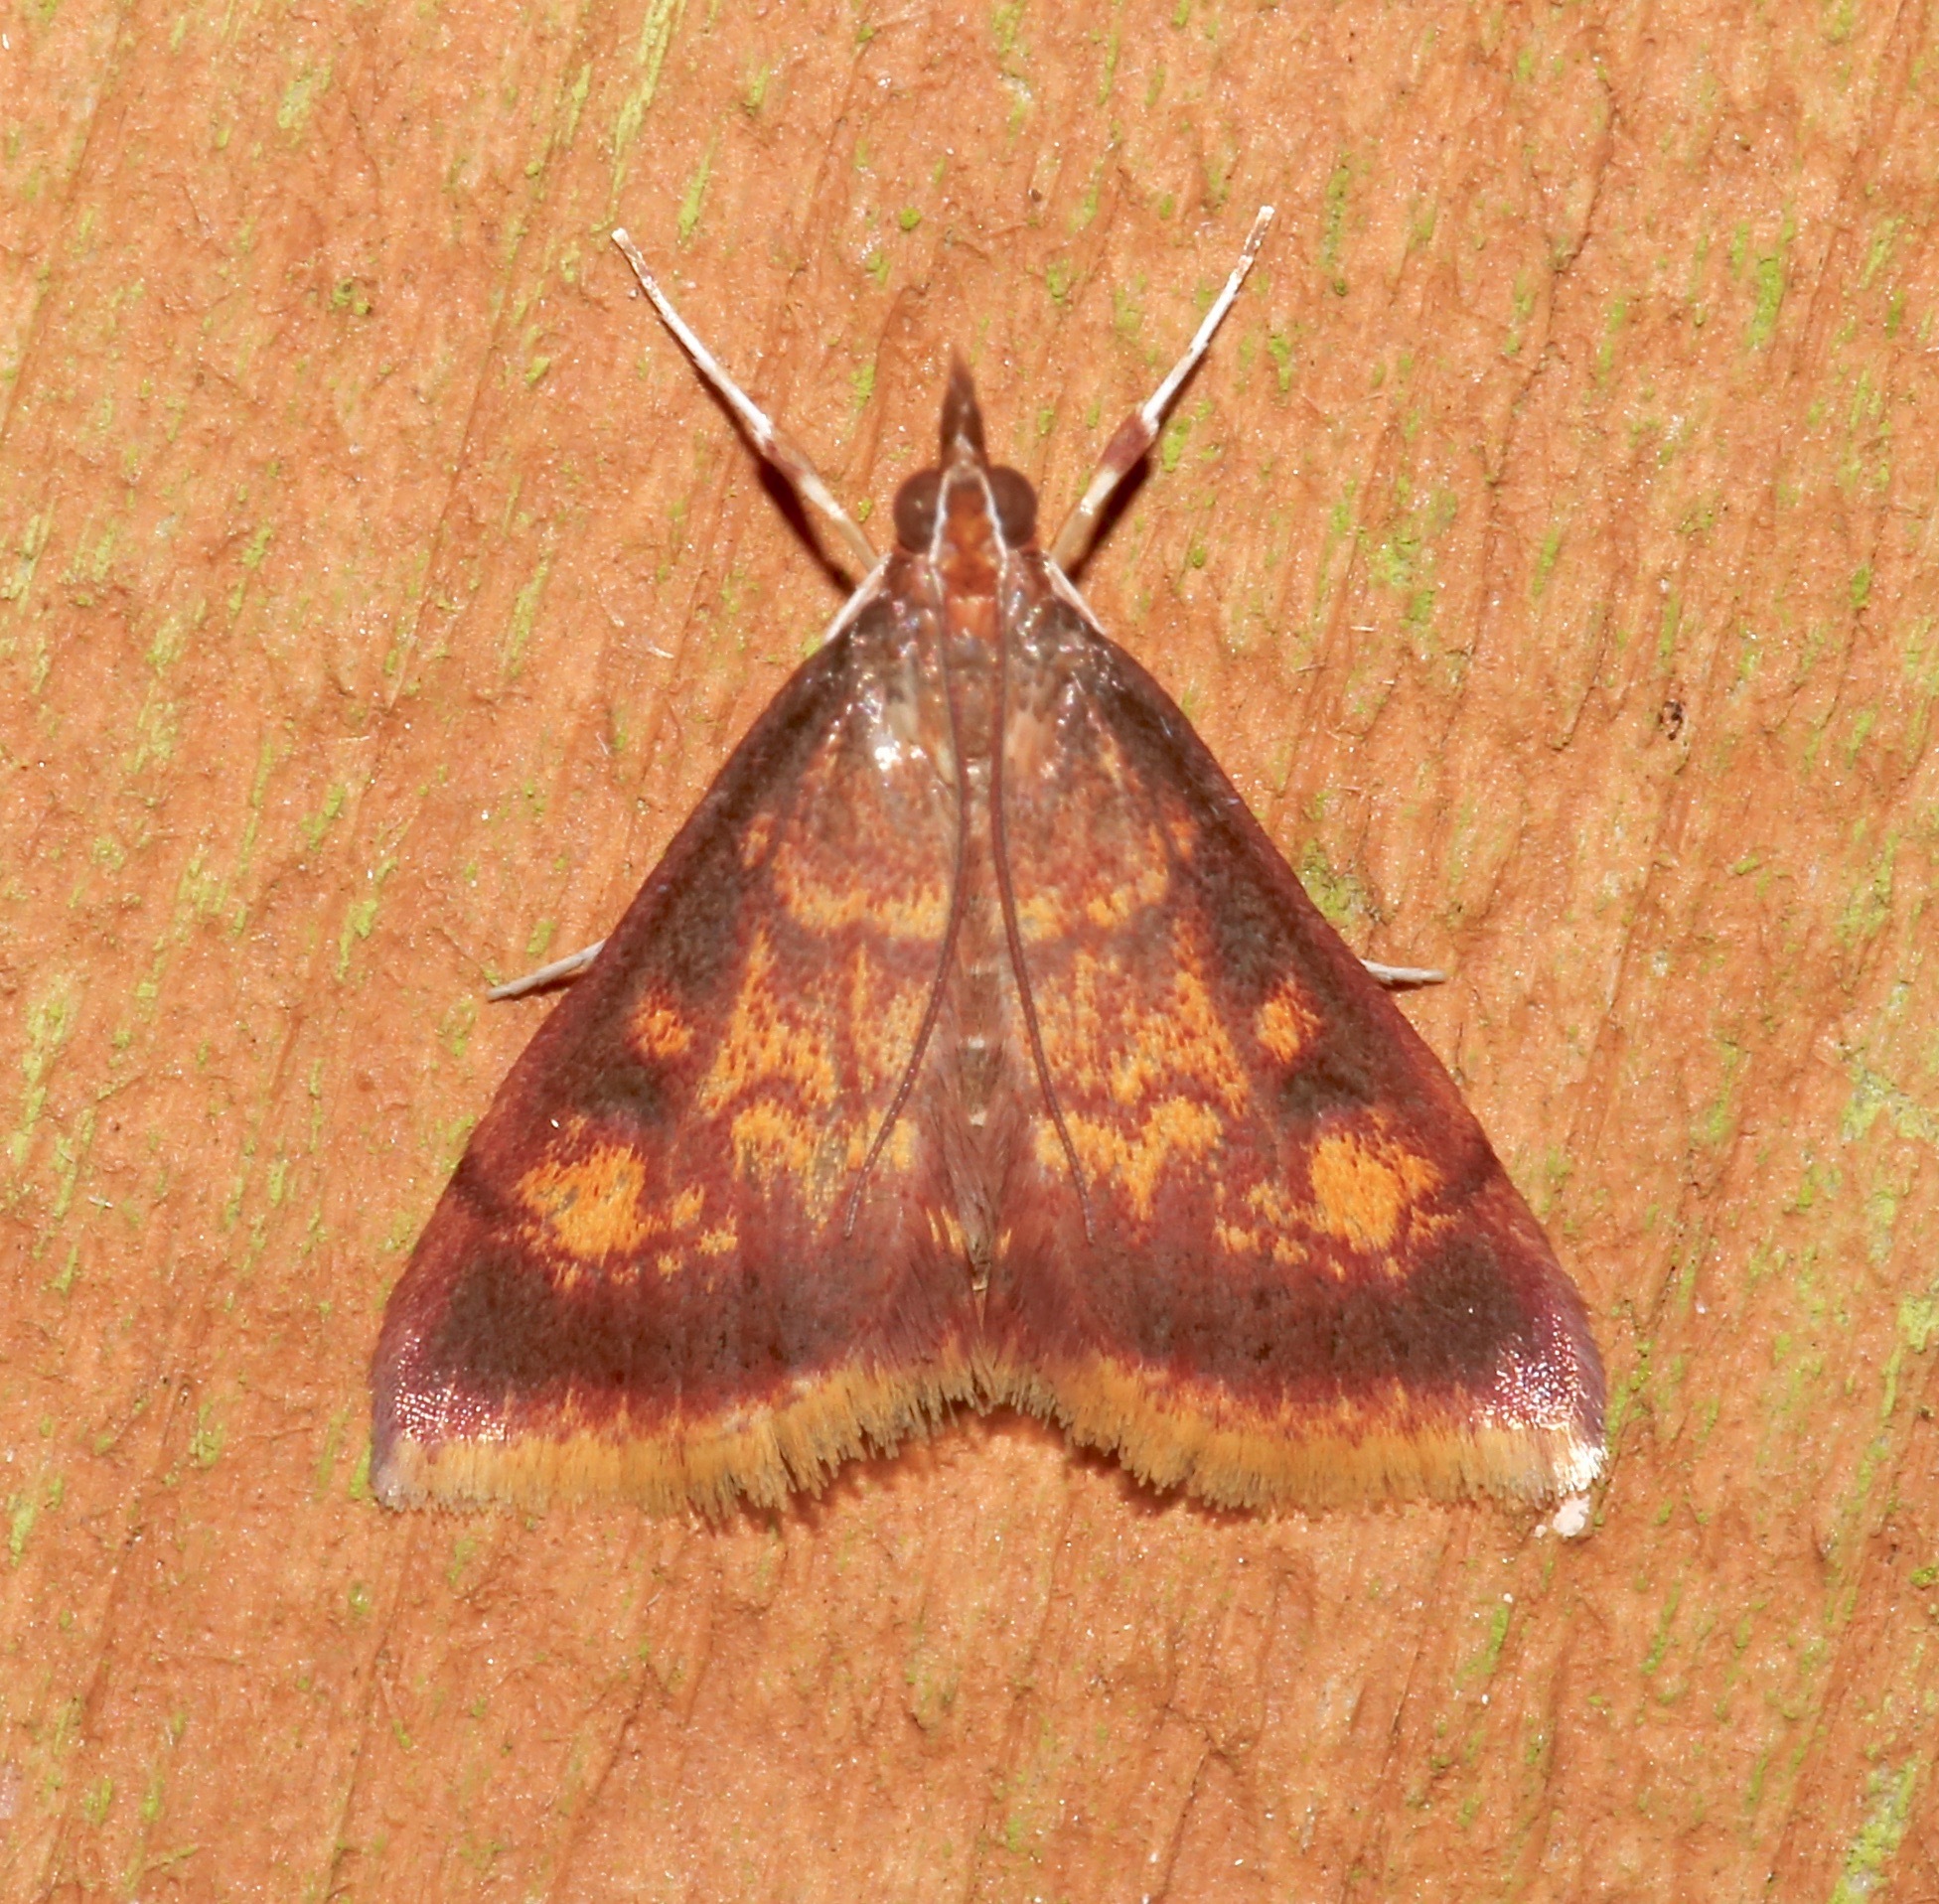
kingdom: Animalia
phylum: Arthropoda
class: Insecta
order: Lepidoptera
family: Crambidae
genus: Pyrausta
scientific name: Pyrausta acrionalis
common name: Mint-loving pyrausta moth
